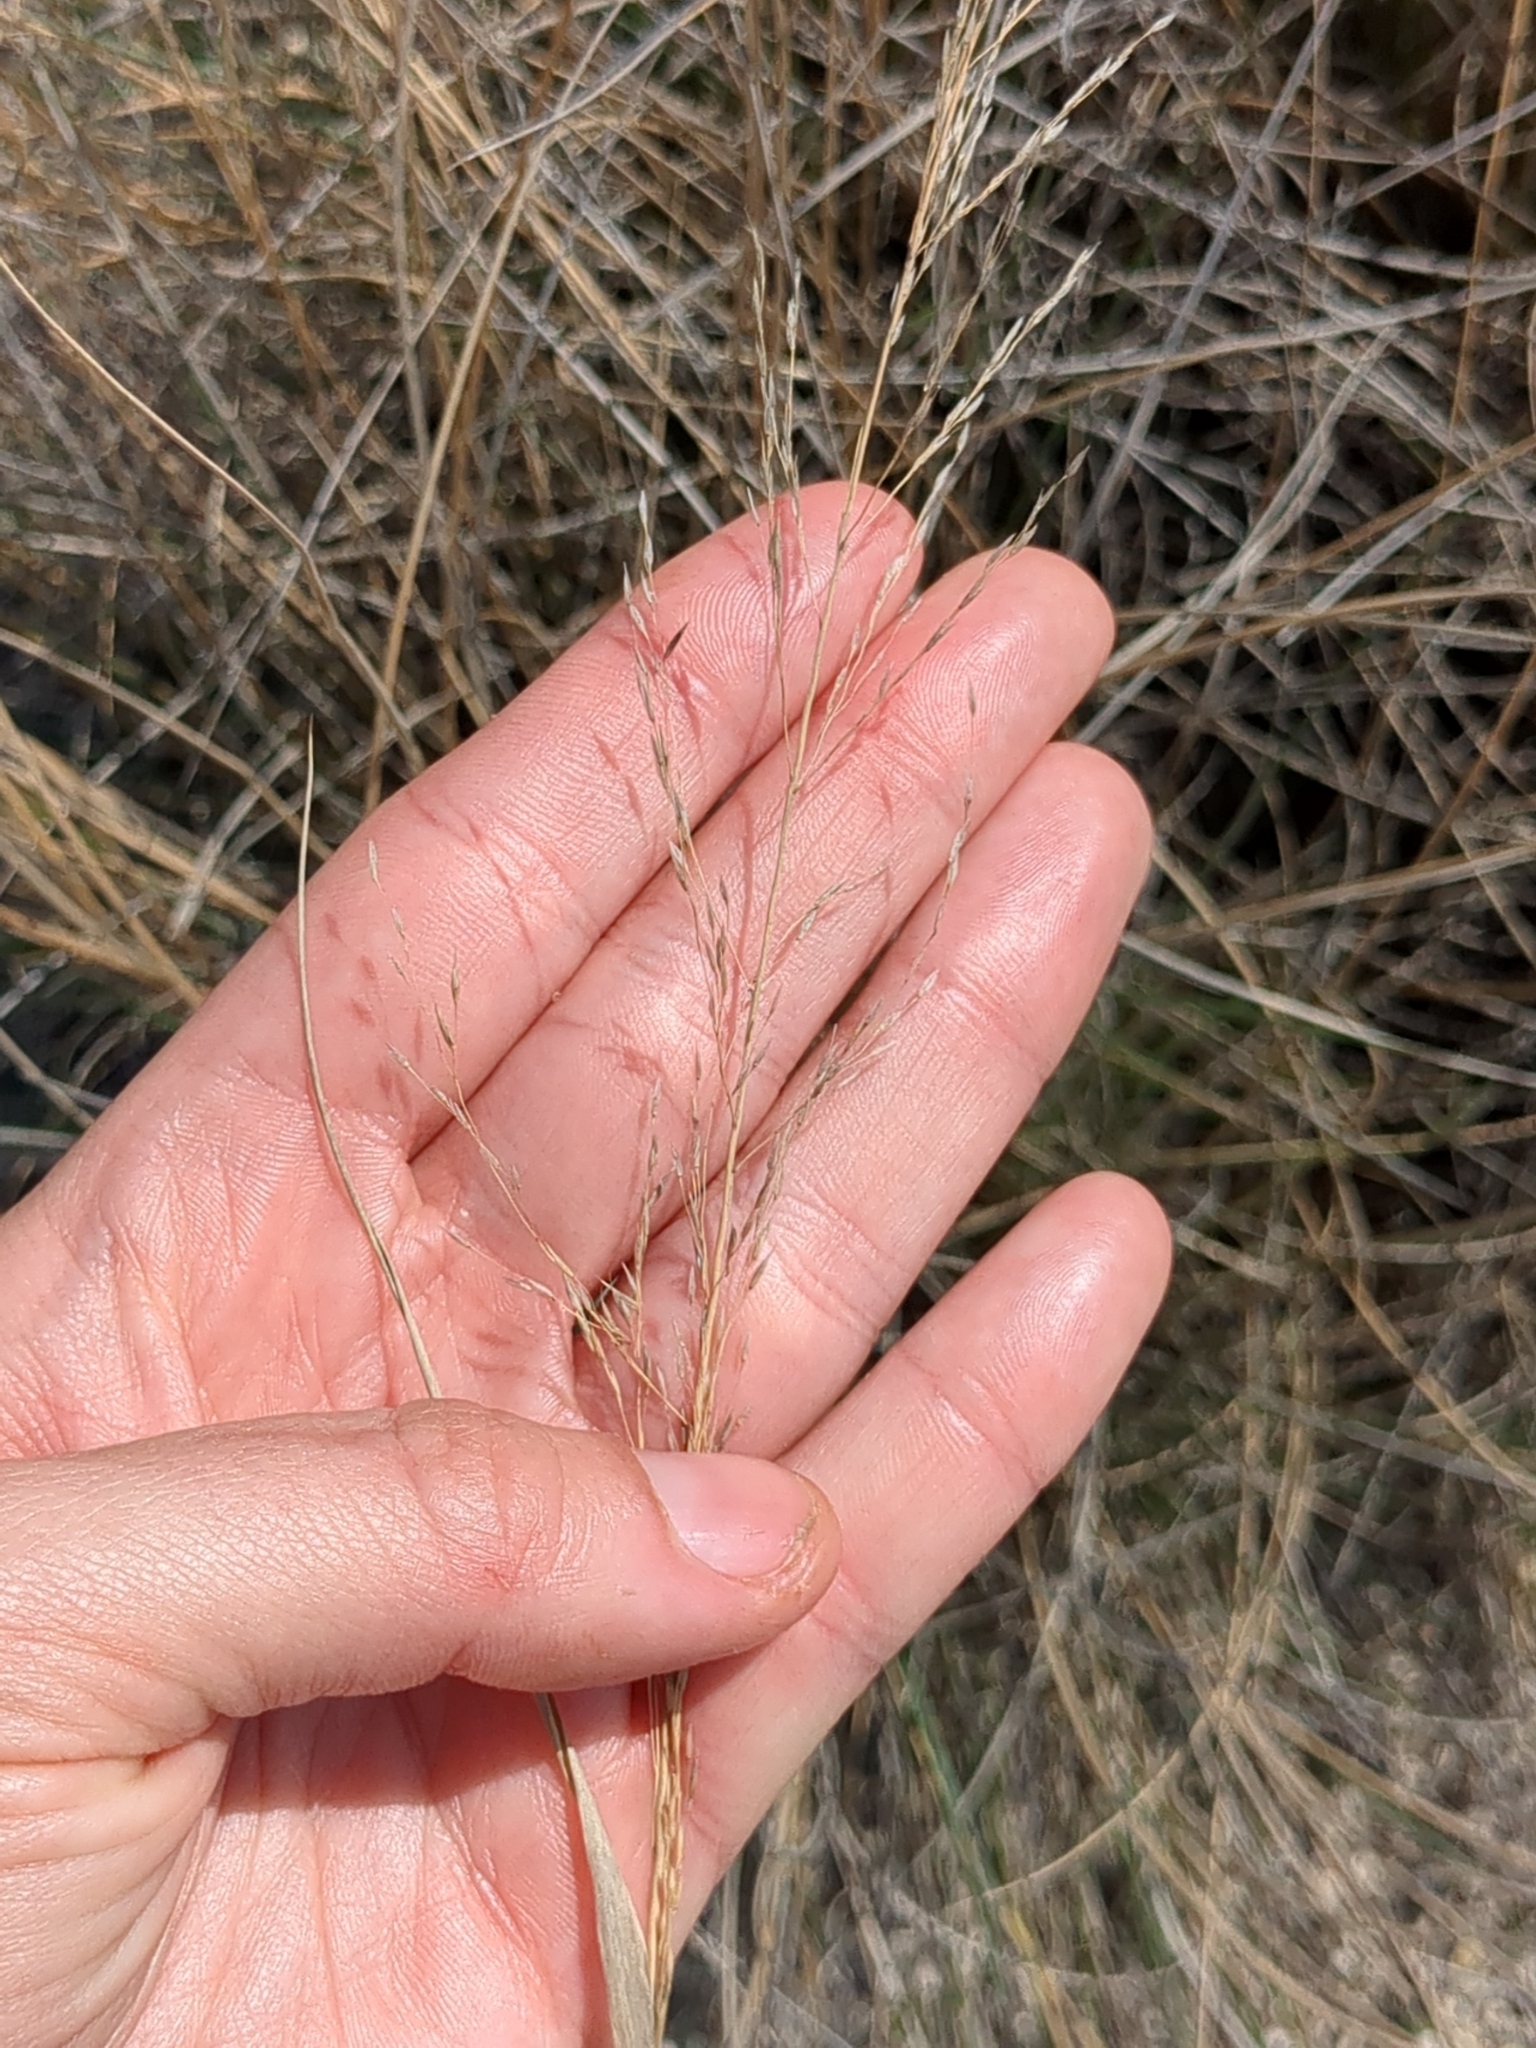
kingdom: Plantae
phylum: Tracheophyta
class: Liliopsida
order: Poales
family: Poaceae
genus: Muhlenbergia
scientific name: Muhlenbergia involuta
